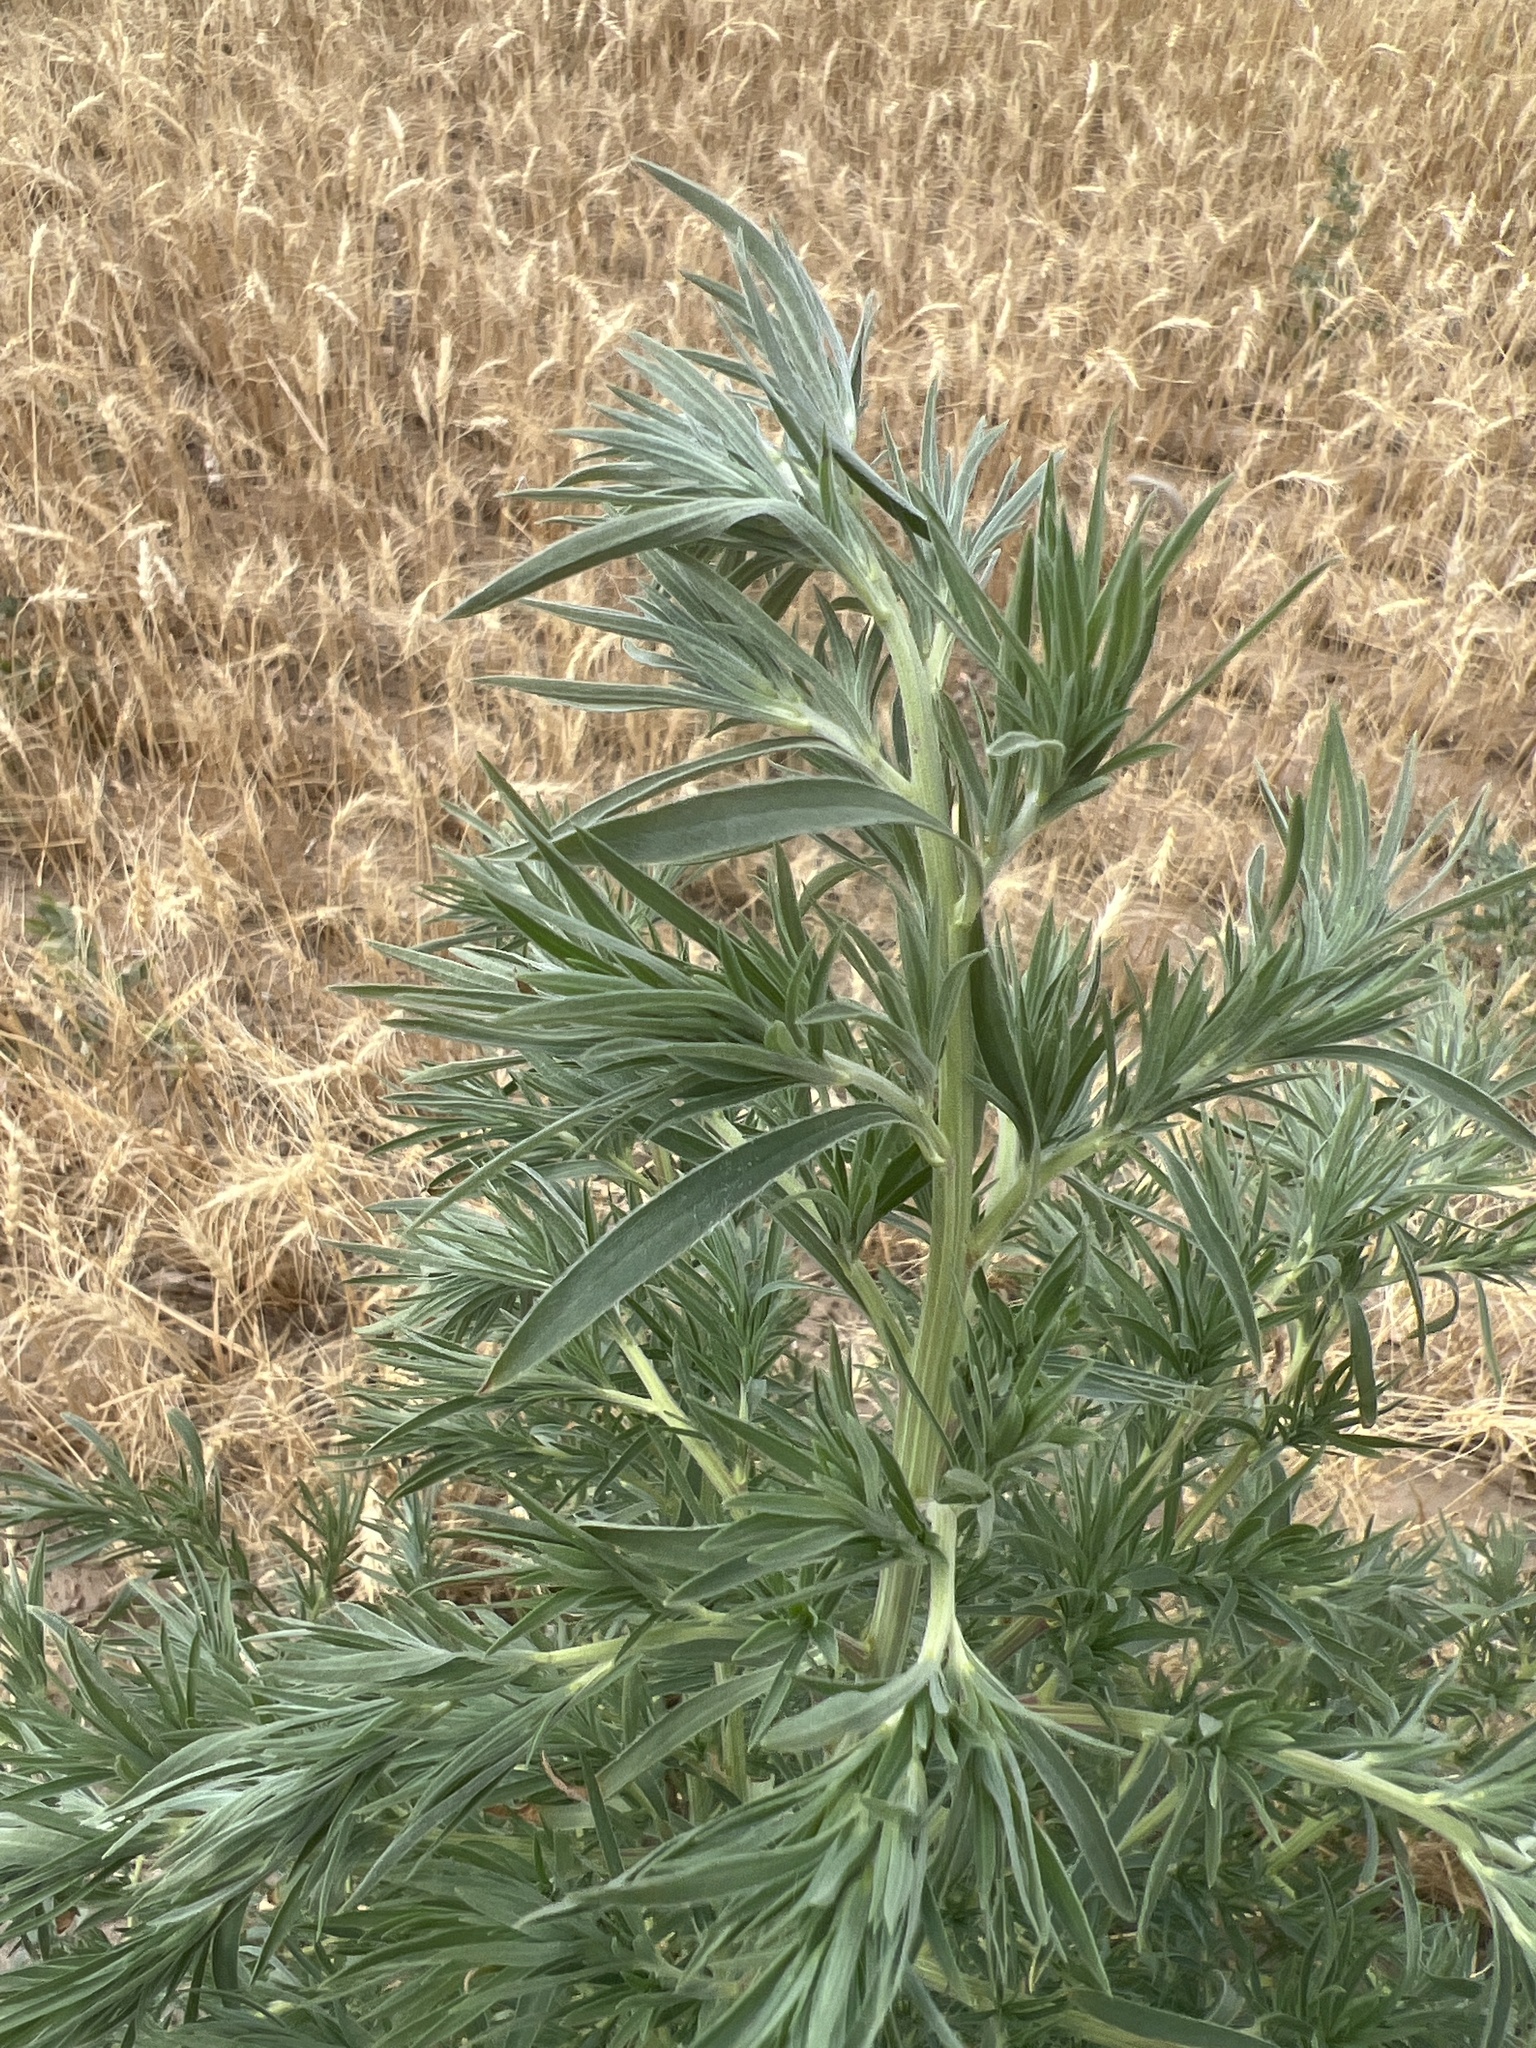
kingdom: Plantae
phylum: Tracheophyta
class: Magnoliopsida
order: Caryophyllales
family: Amaranthaceae
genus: Bassia
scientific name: Bassia scoparia
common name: Belvedere
